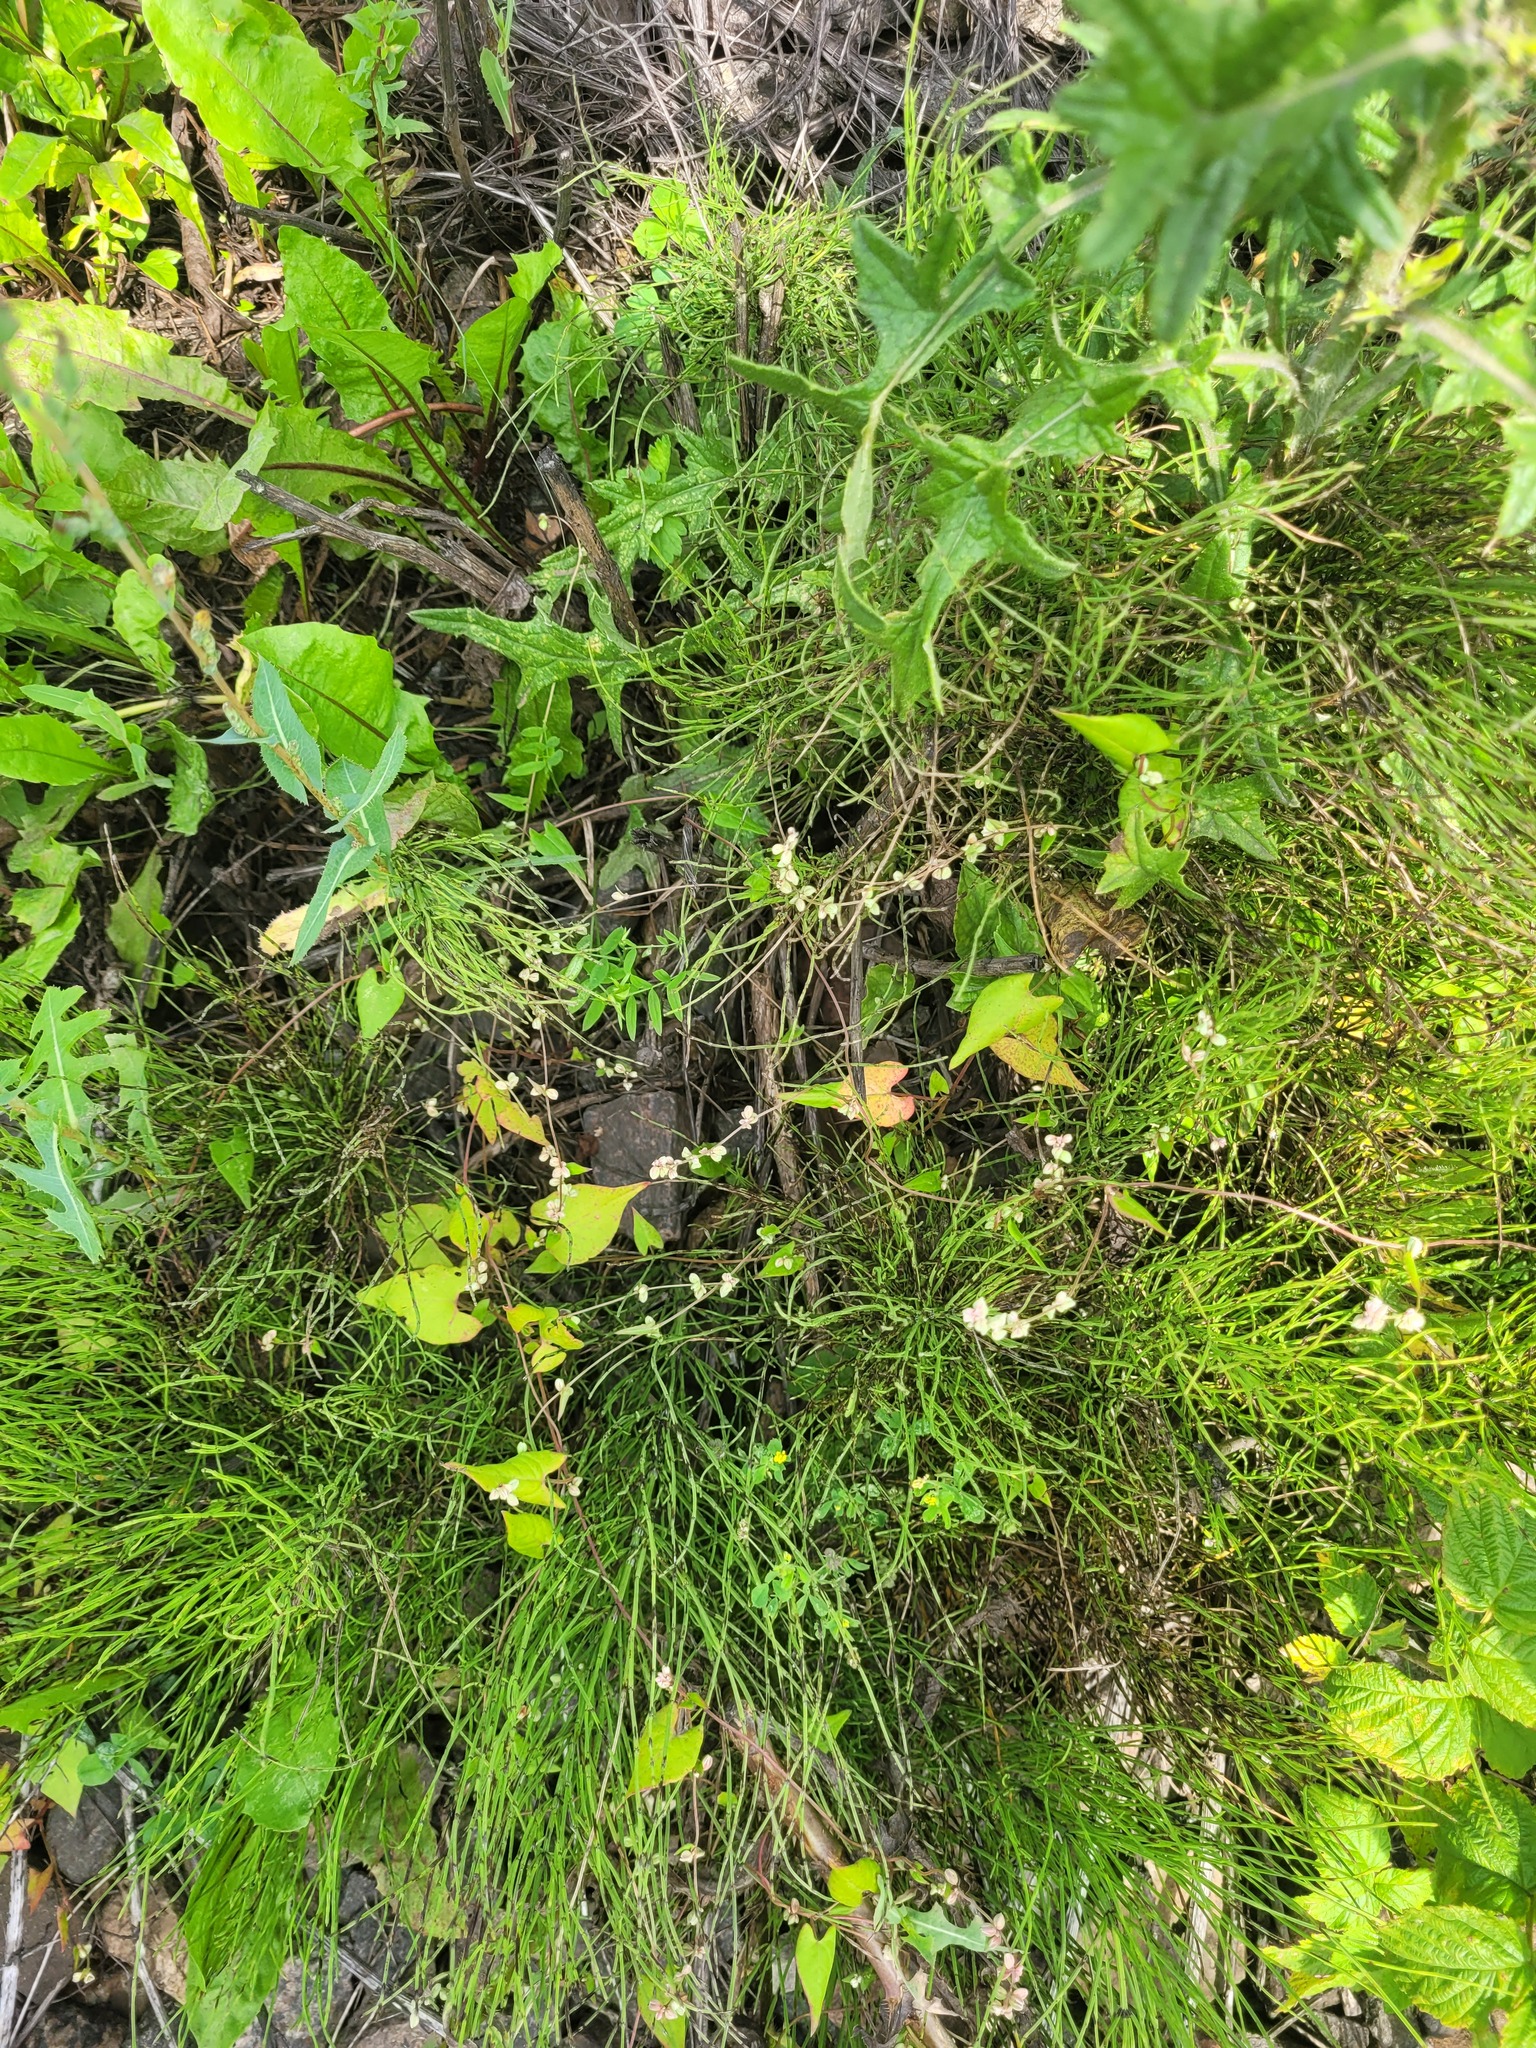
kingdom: Plantae
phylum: Tracheophyta
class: Magnoliopsida
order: Caryophyllales
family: Polygonaceae
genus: Fallopia
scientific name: Fallopia convolvulus
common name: Black bindweed
